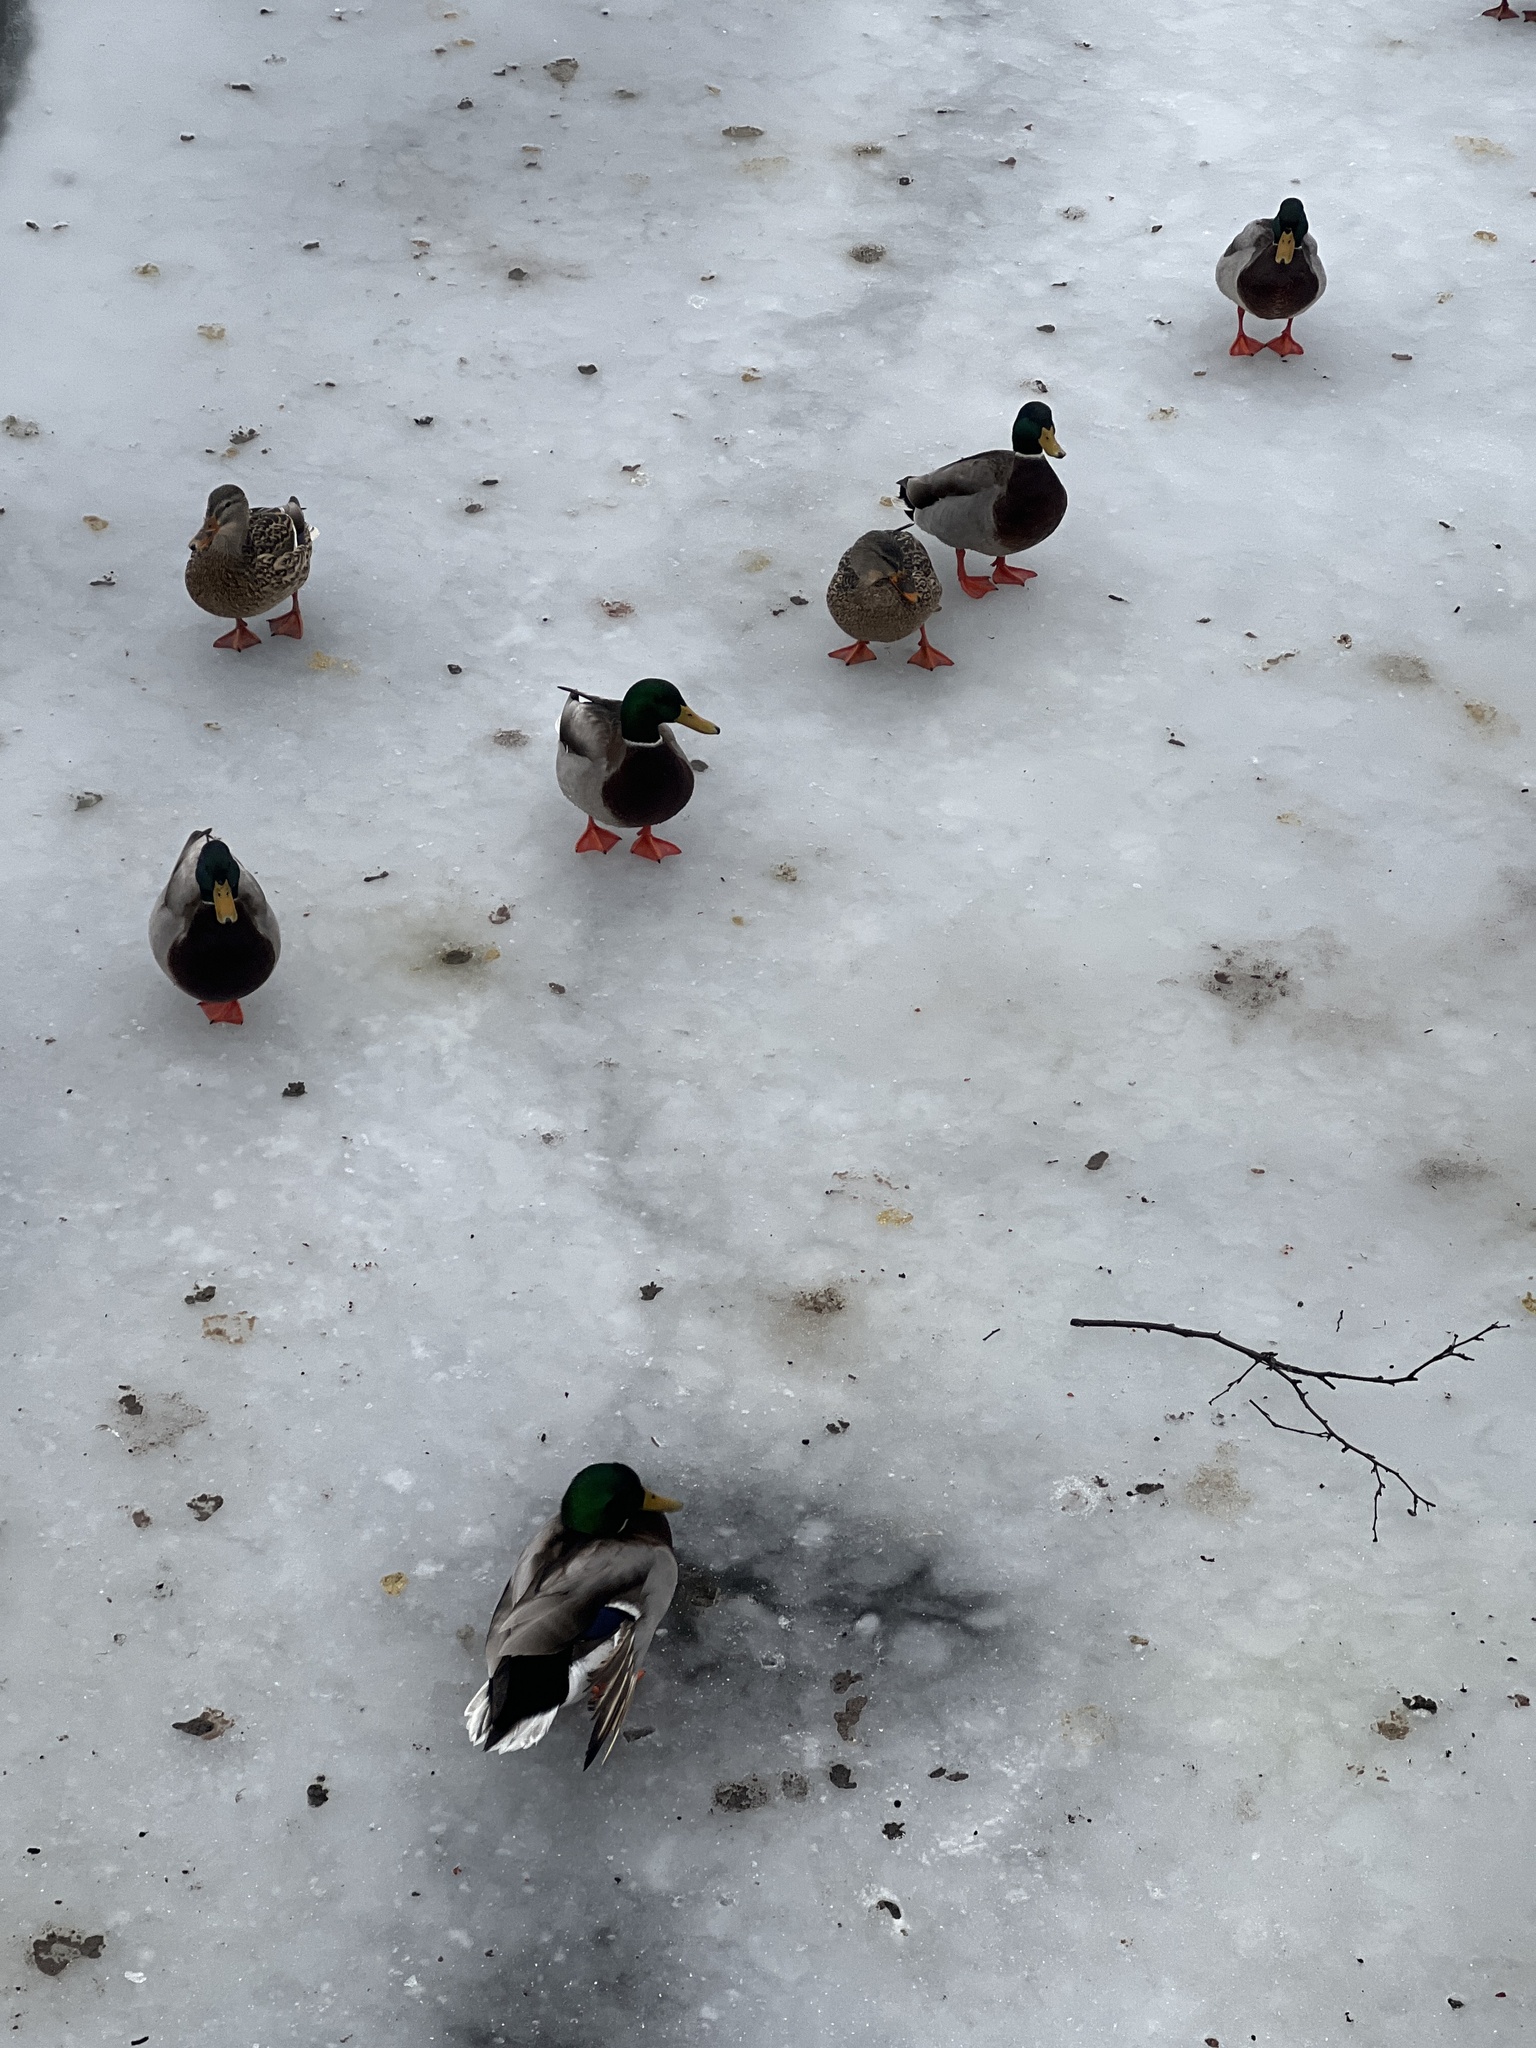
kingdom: Animalia
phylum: Chordata
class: Aves
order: Anseriformes
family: Anatidae
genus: Anas
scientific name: Anas platyrhynchos
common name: Mallard
